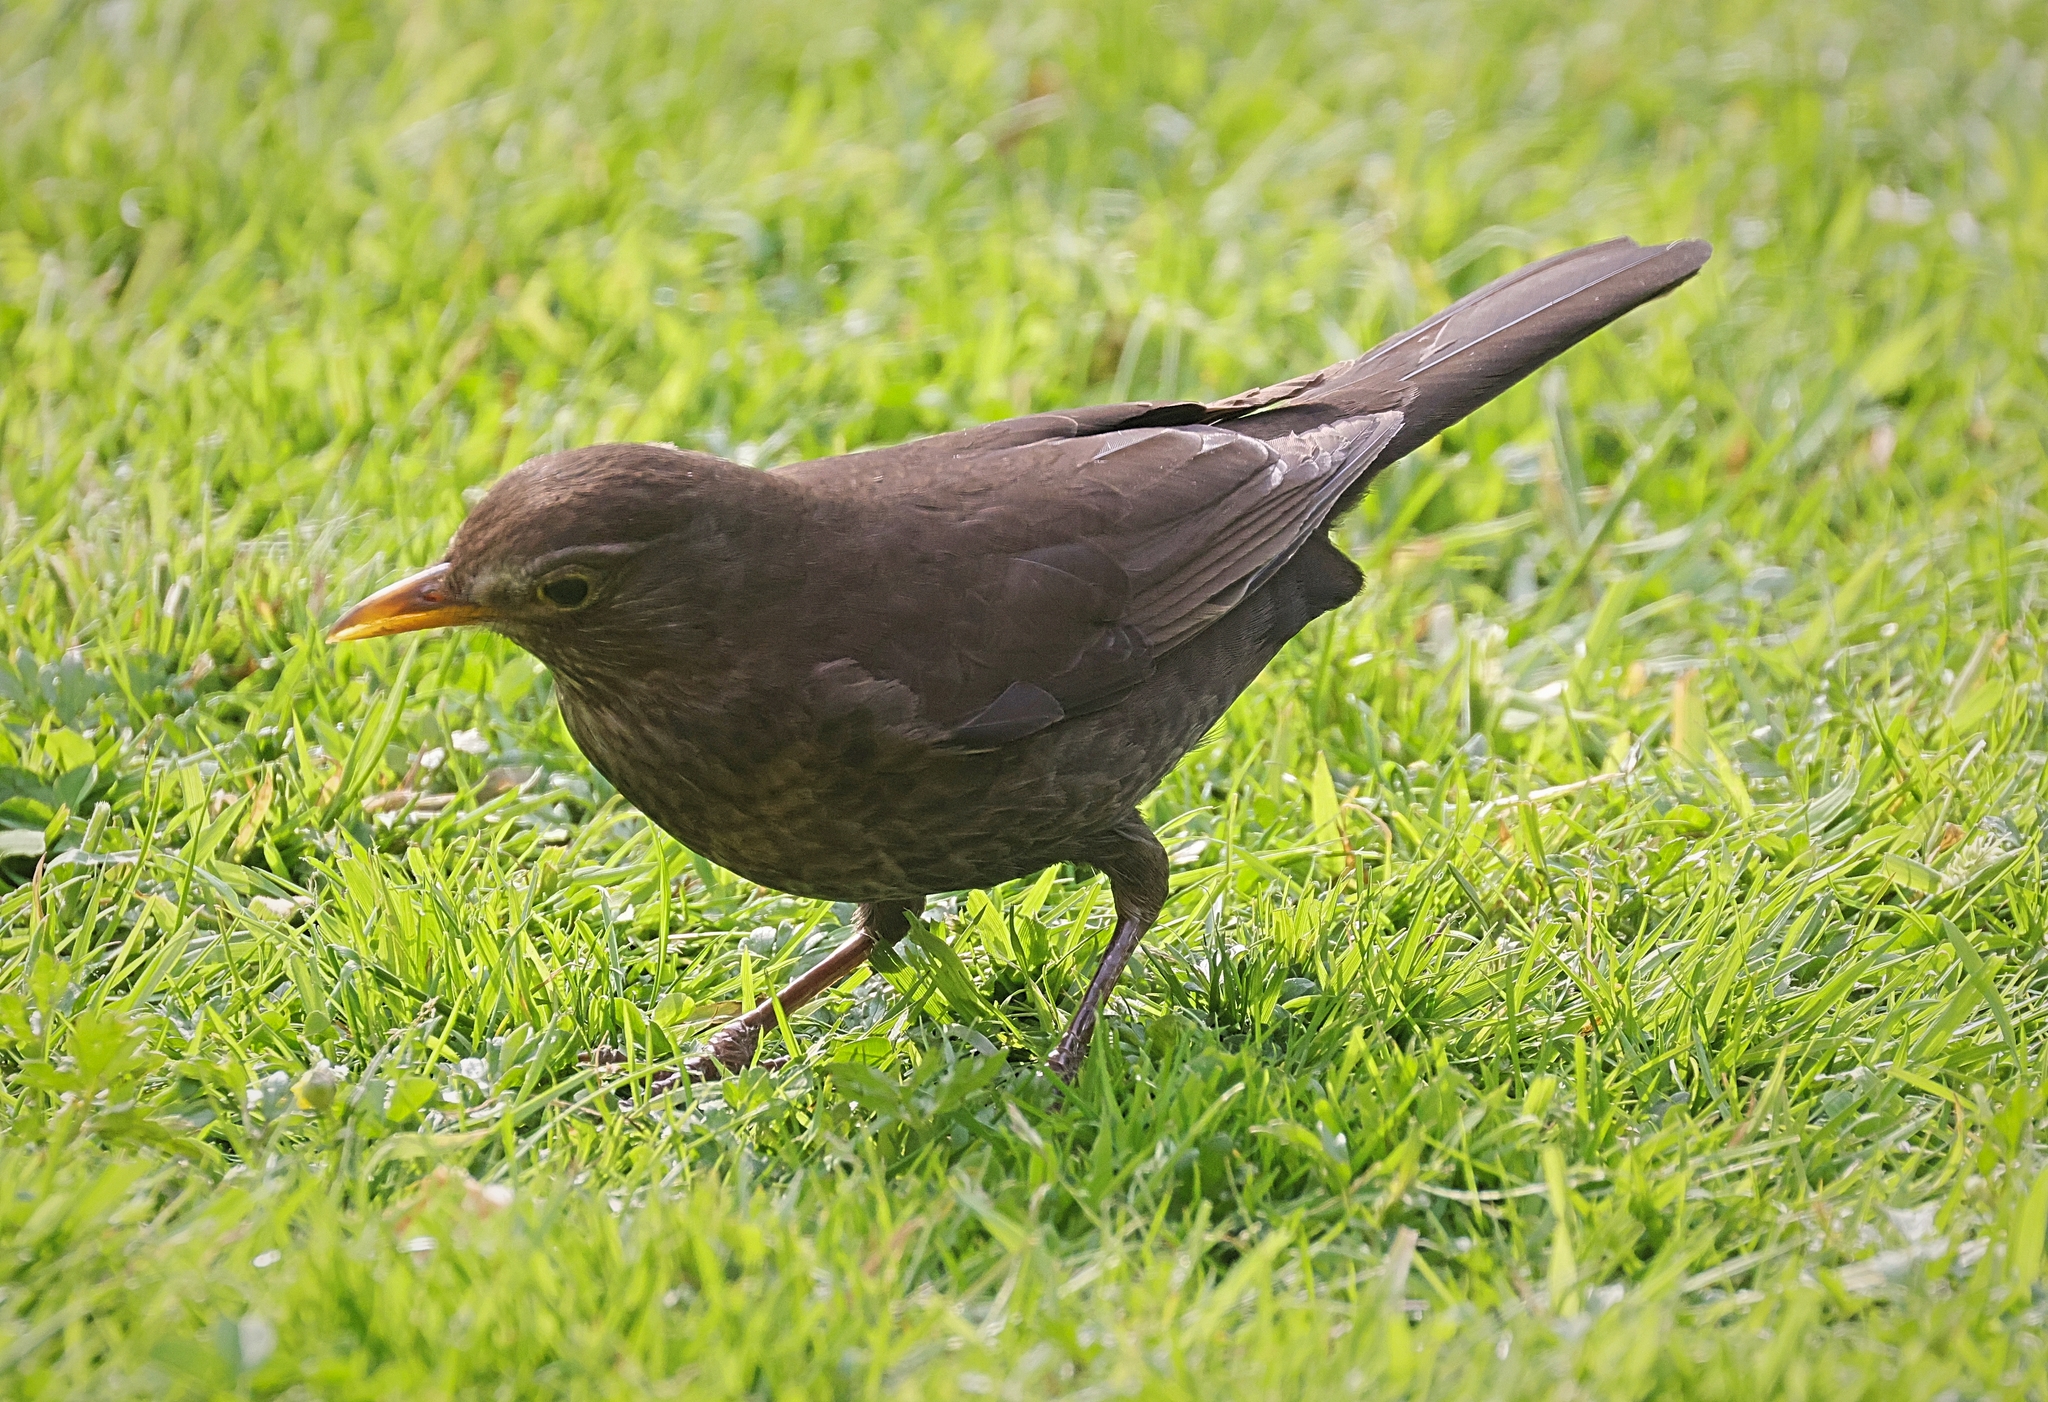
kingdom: Animalia
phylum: Chordata
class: Aves
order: Passeriformes
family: Turdidae
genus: Turdus
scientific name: Turdus merula
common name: Common blackbird
